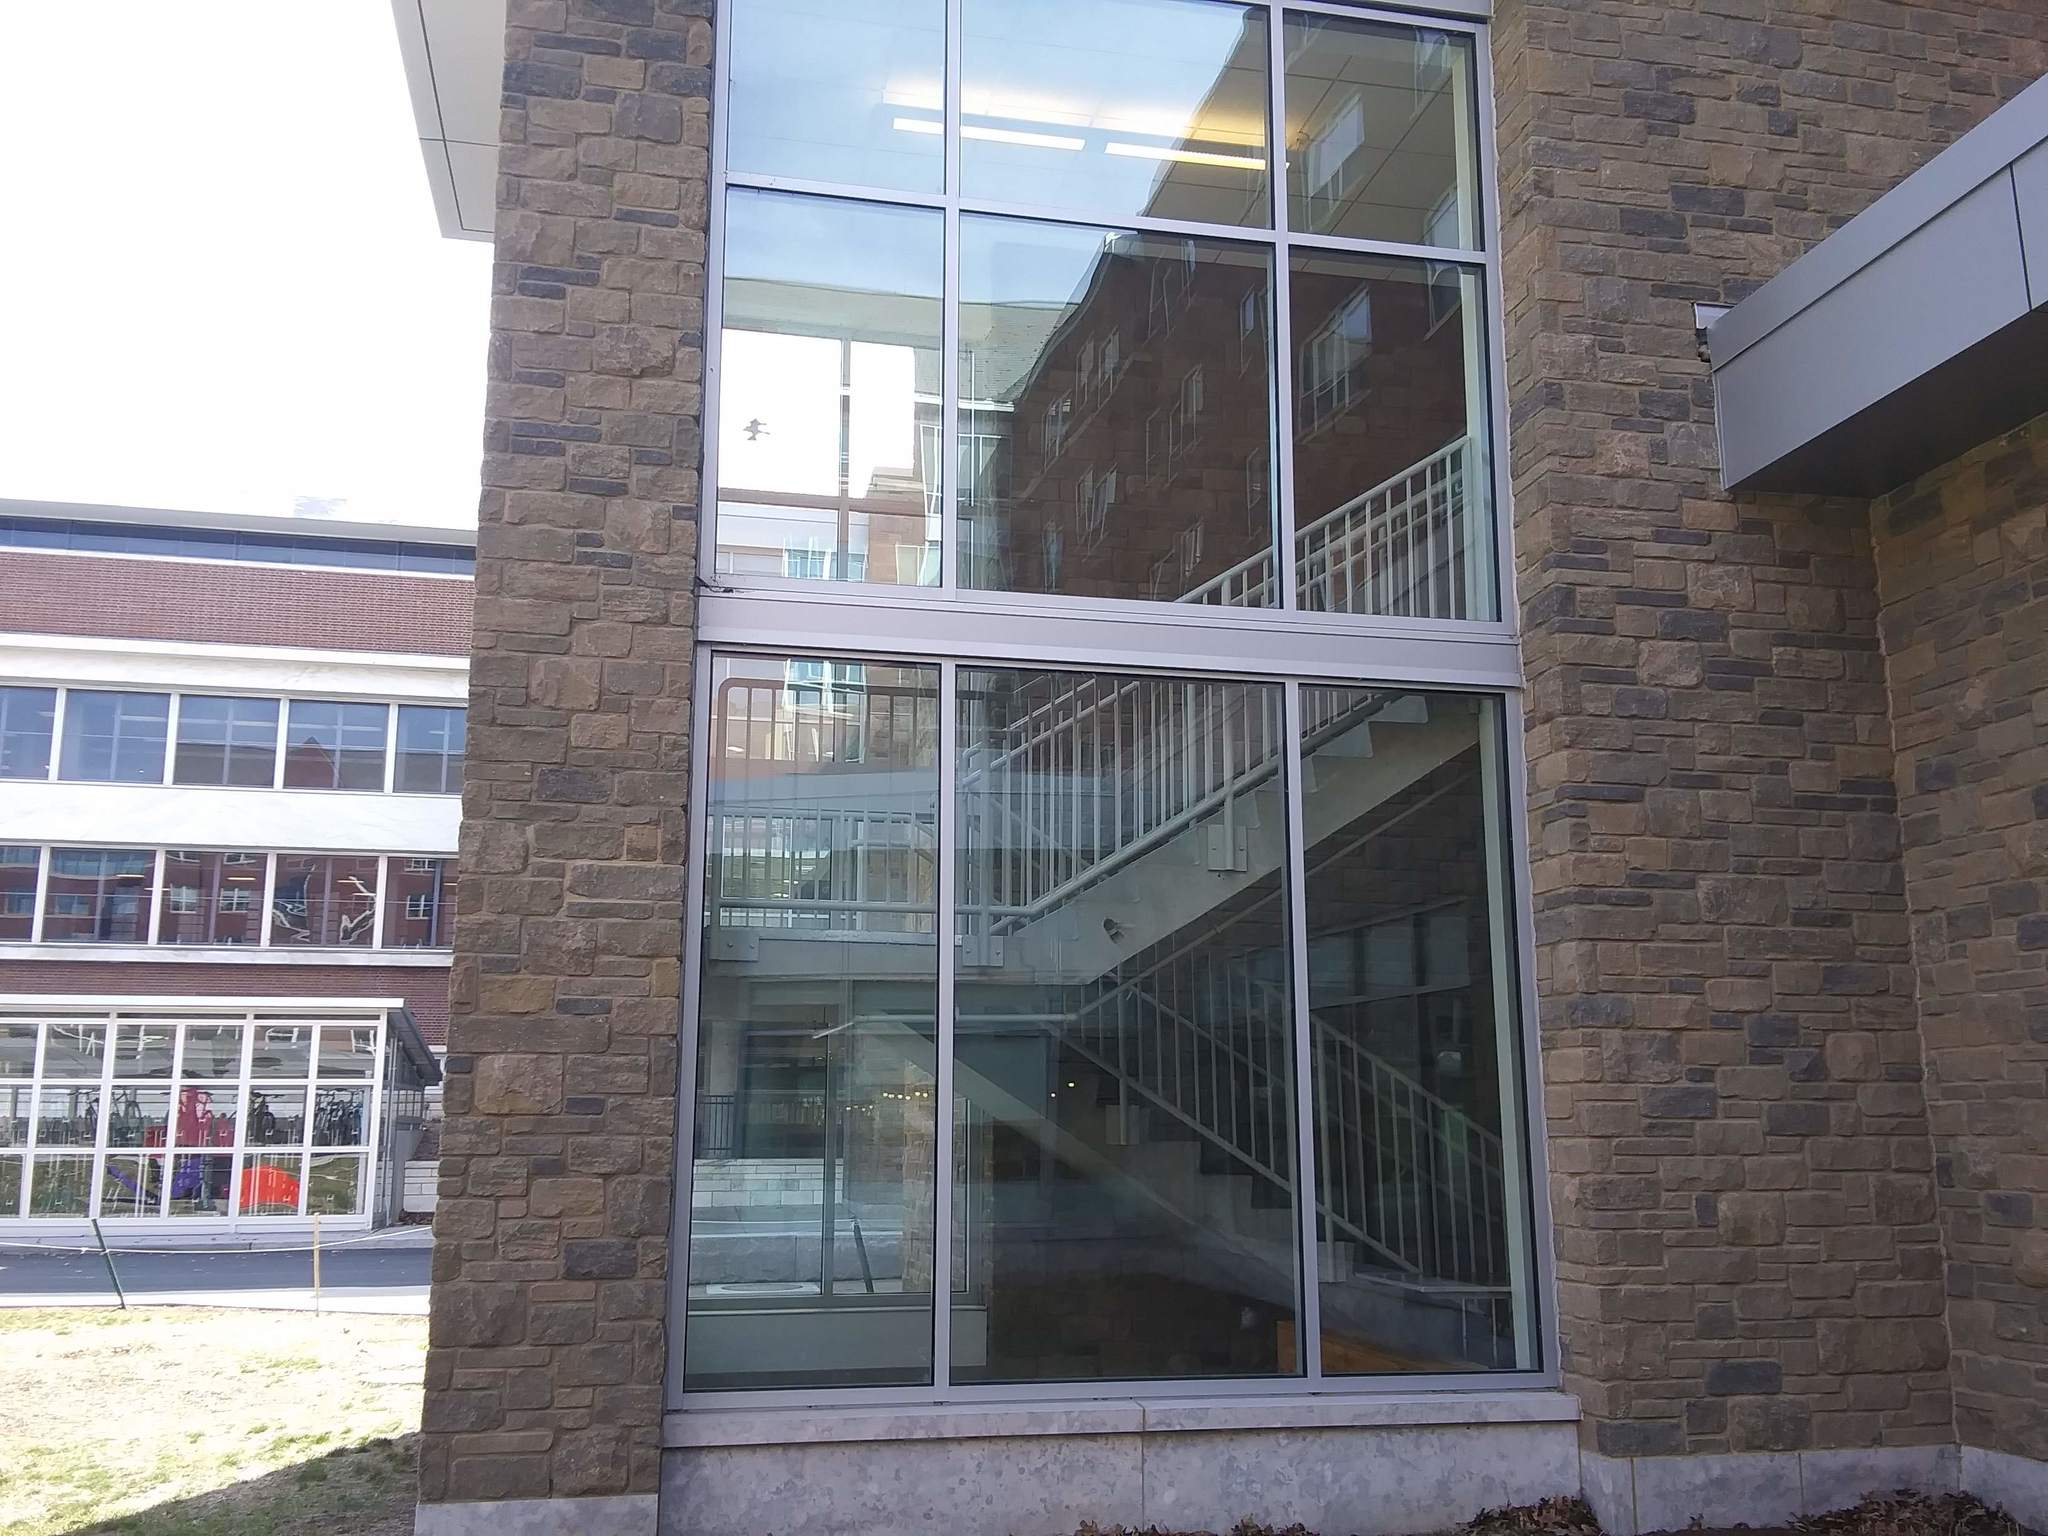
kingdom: Animalia
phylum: Chordata
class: Aves
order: Passeriformes
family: Sittidae
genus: Sitta
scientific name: Sitta carolinensis
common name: White-breasted nuthatch
